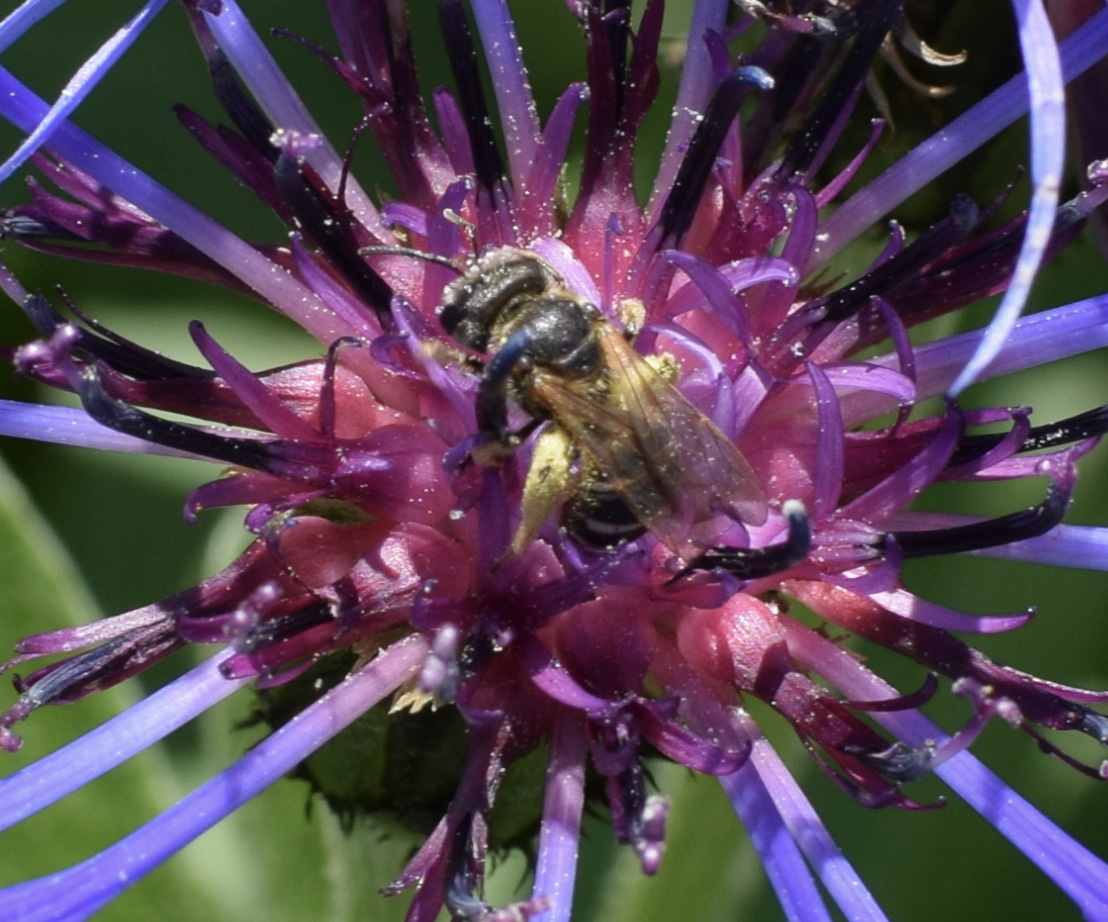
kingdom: Animalia
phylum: Arthropoda
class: Insecta
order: Hymenoptera
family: Halictidae
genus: Halictus
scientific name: Halictus ligatus
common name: Ligated furrow bee
